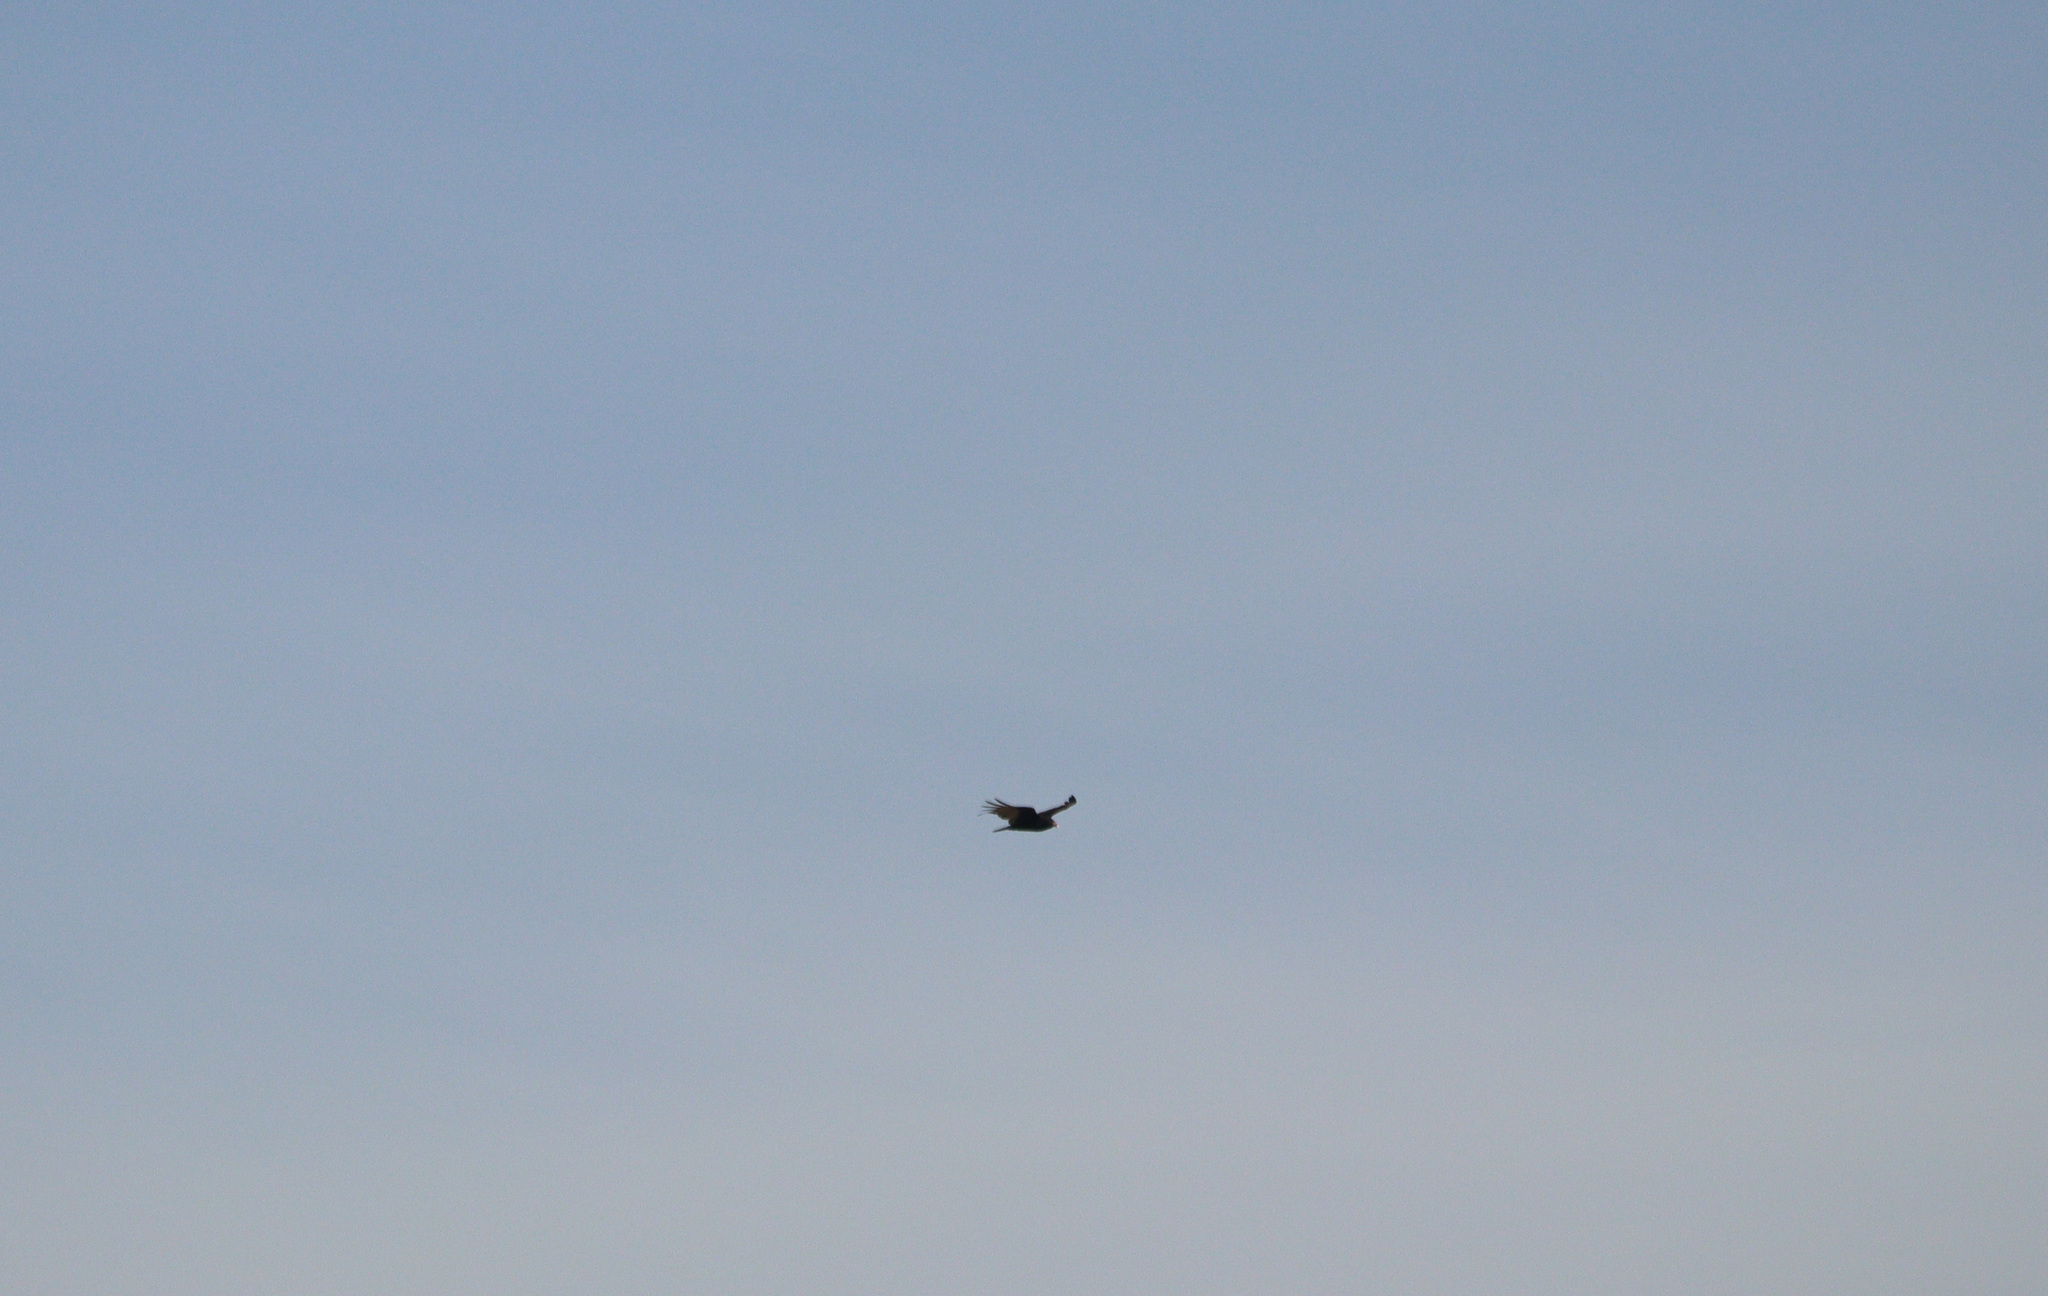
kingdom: Animalia
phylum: Chordata
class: Aves
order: Accipitriformes
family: Cathartidae
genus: Cathartes
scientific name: Cathartes aura
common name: Turkey vulture
